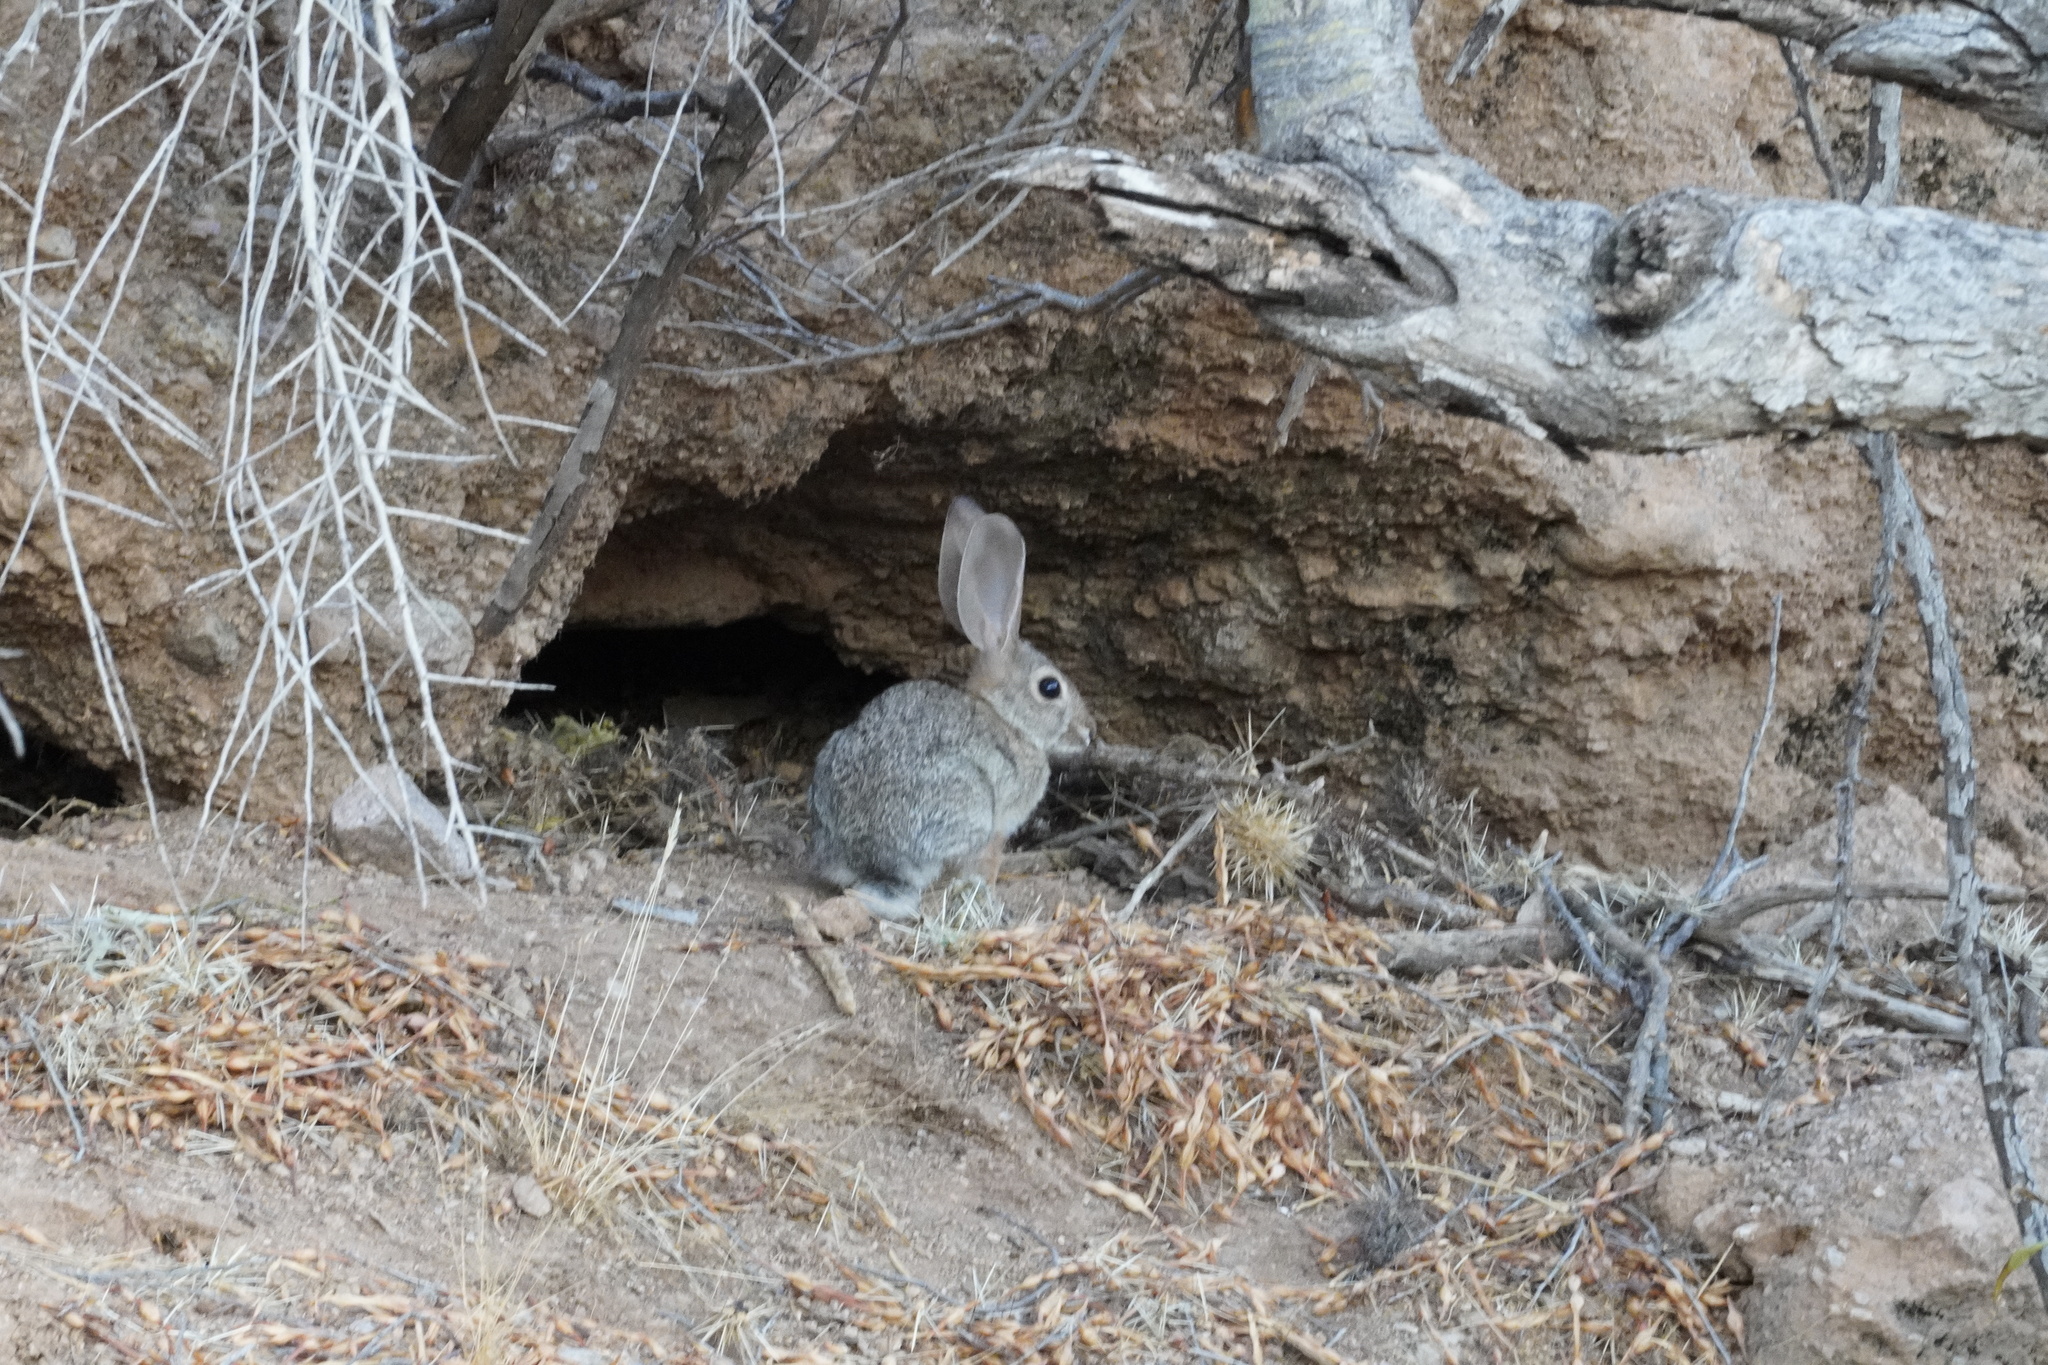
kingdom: Animalia
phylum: Chordata
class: Mammalia
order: Lagomorpha
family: Leporidae
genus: Sylvilagus
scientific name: Sylvilagus audubonii
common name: Desert cottontail
